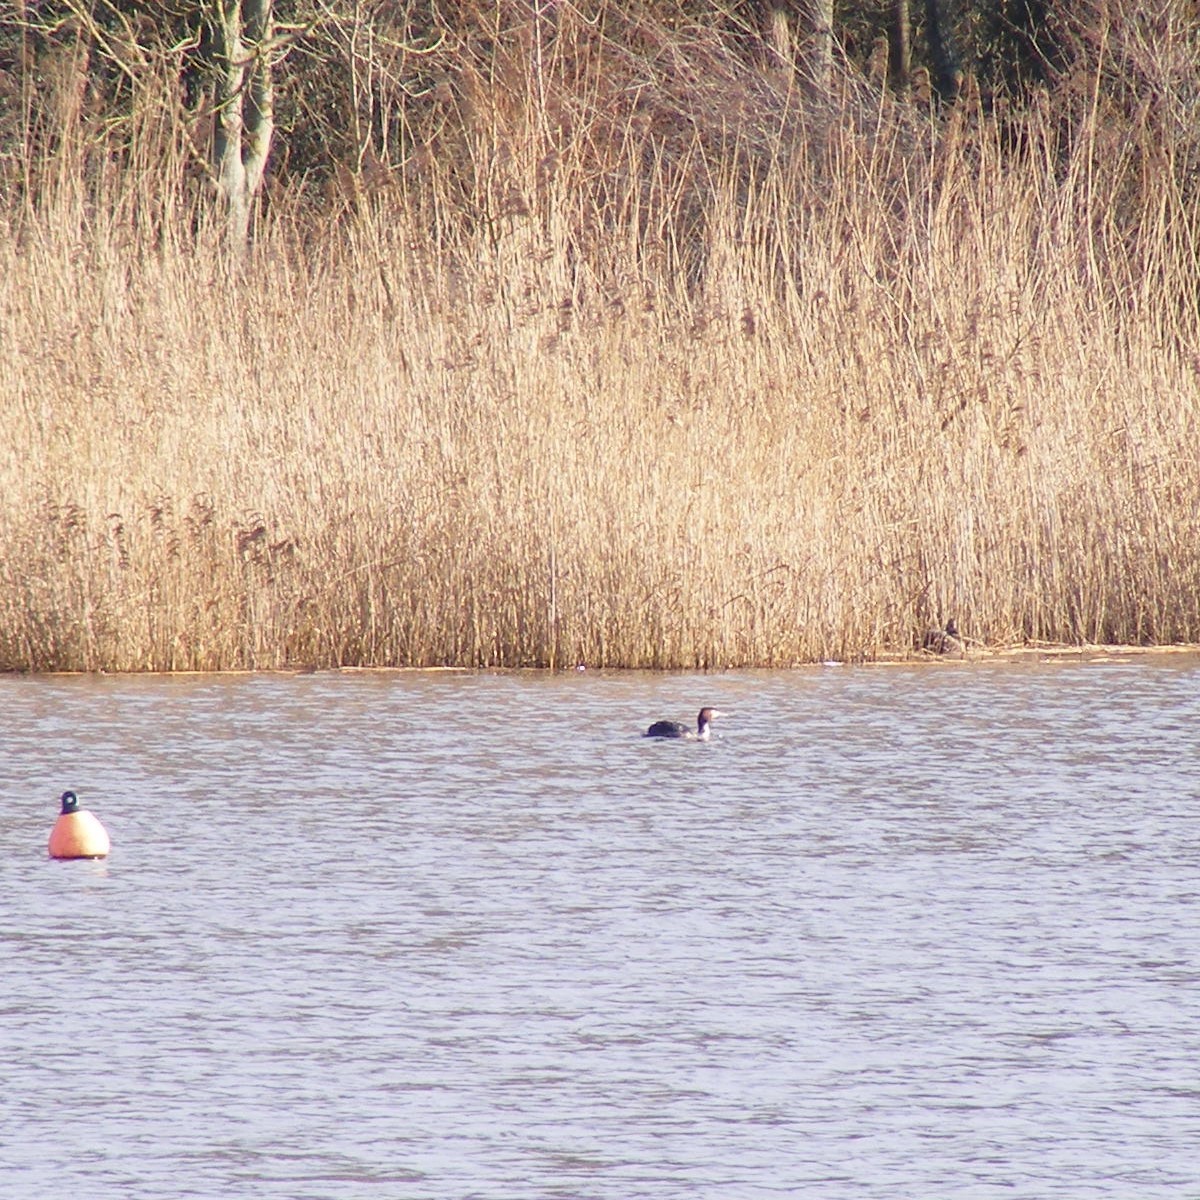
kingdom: Animalia
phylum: Chordata
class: Aves
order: Podicipediformes
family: Podicipedidae
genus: Podiceps
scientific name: Podiceps cristatus
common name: Great crested grebe
